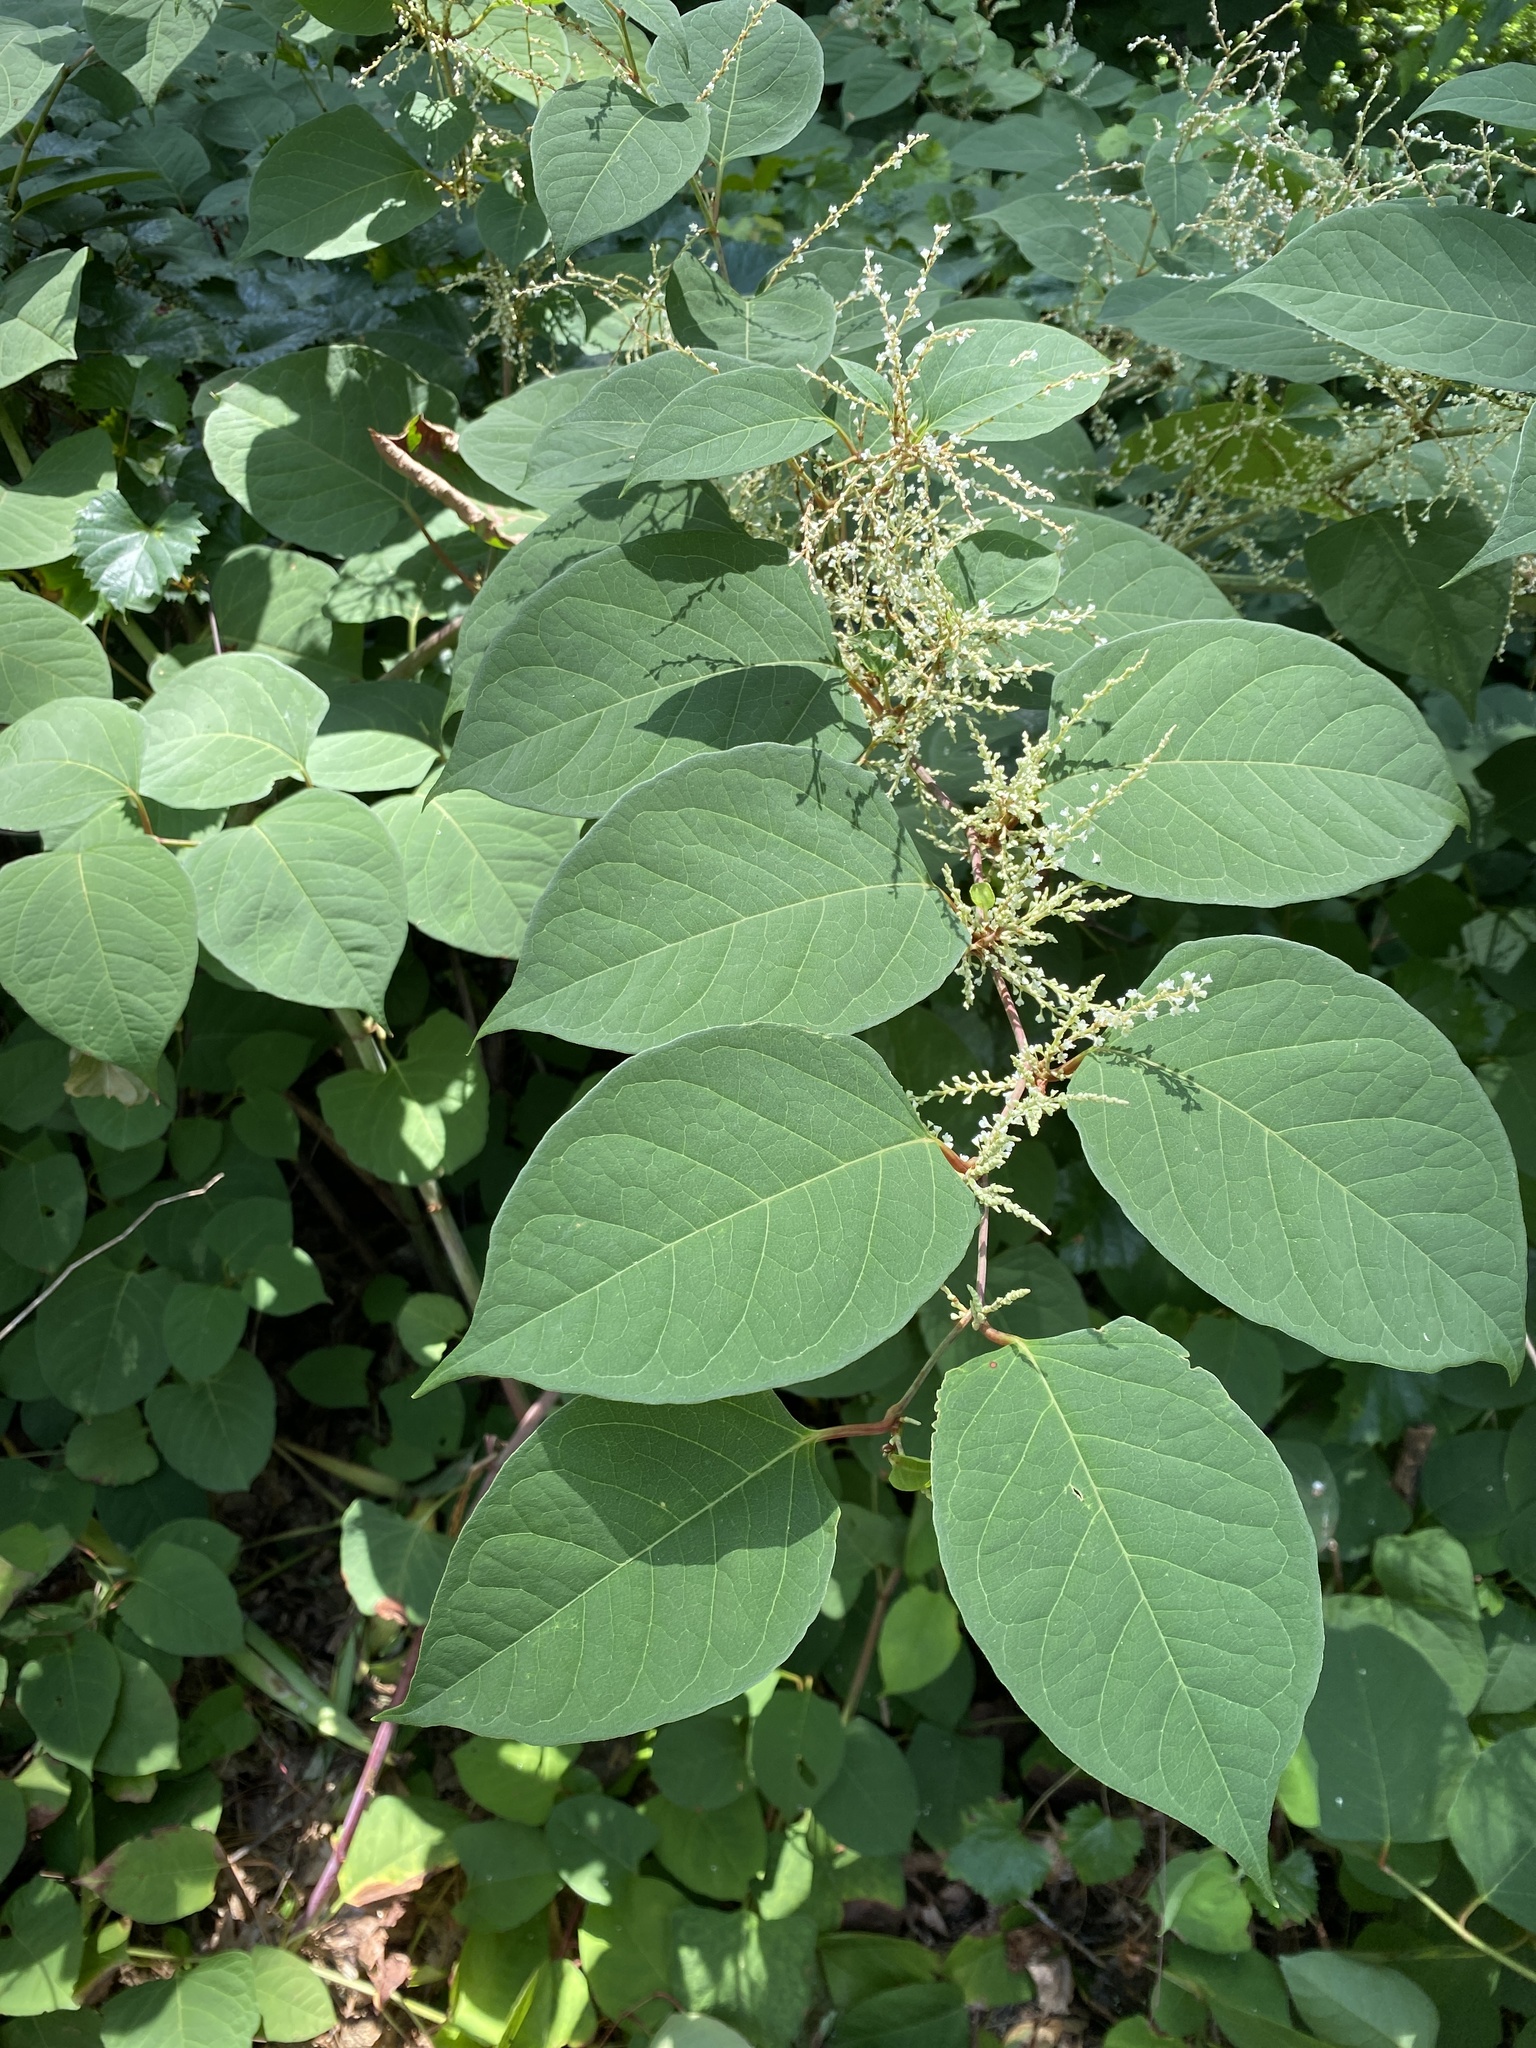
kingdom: Plantae
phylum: Tracheophyta
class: Magnoliopsida
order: Caryophyllales
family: Polygonaceae
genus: Reynoutria
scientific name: Reynoutria japonica
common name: Japanese knotweed
